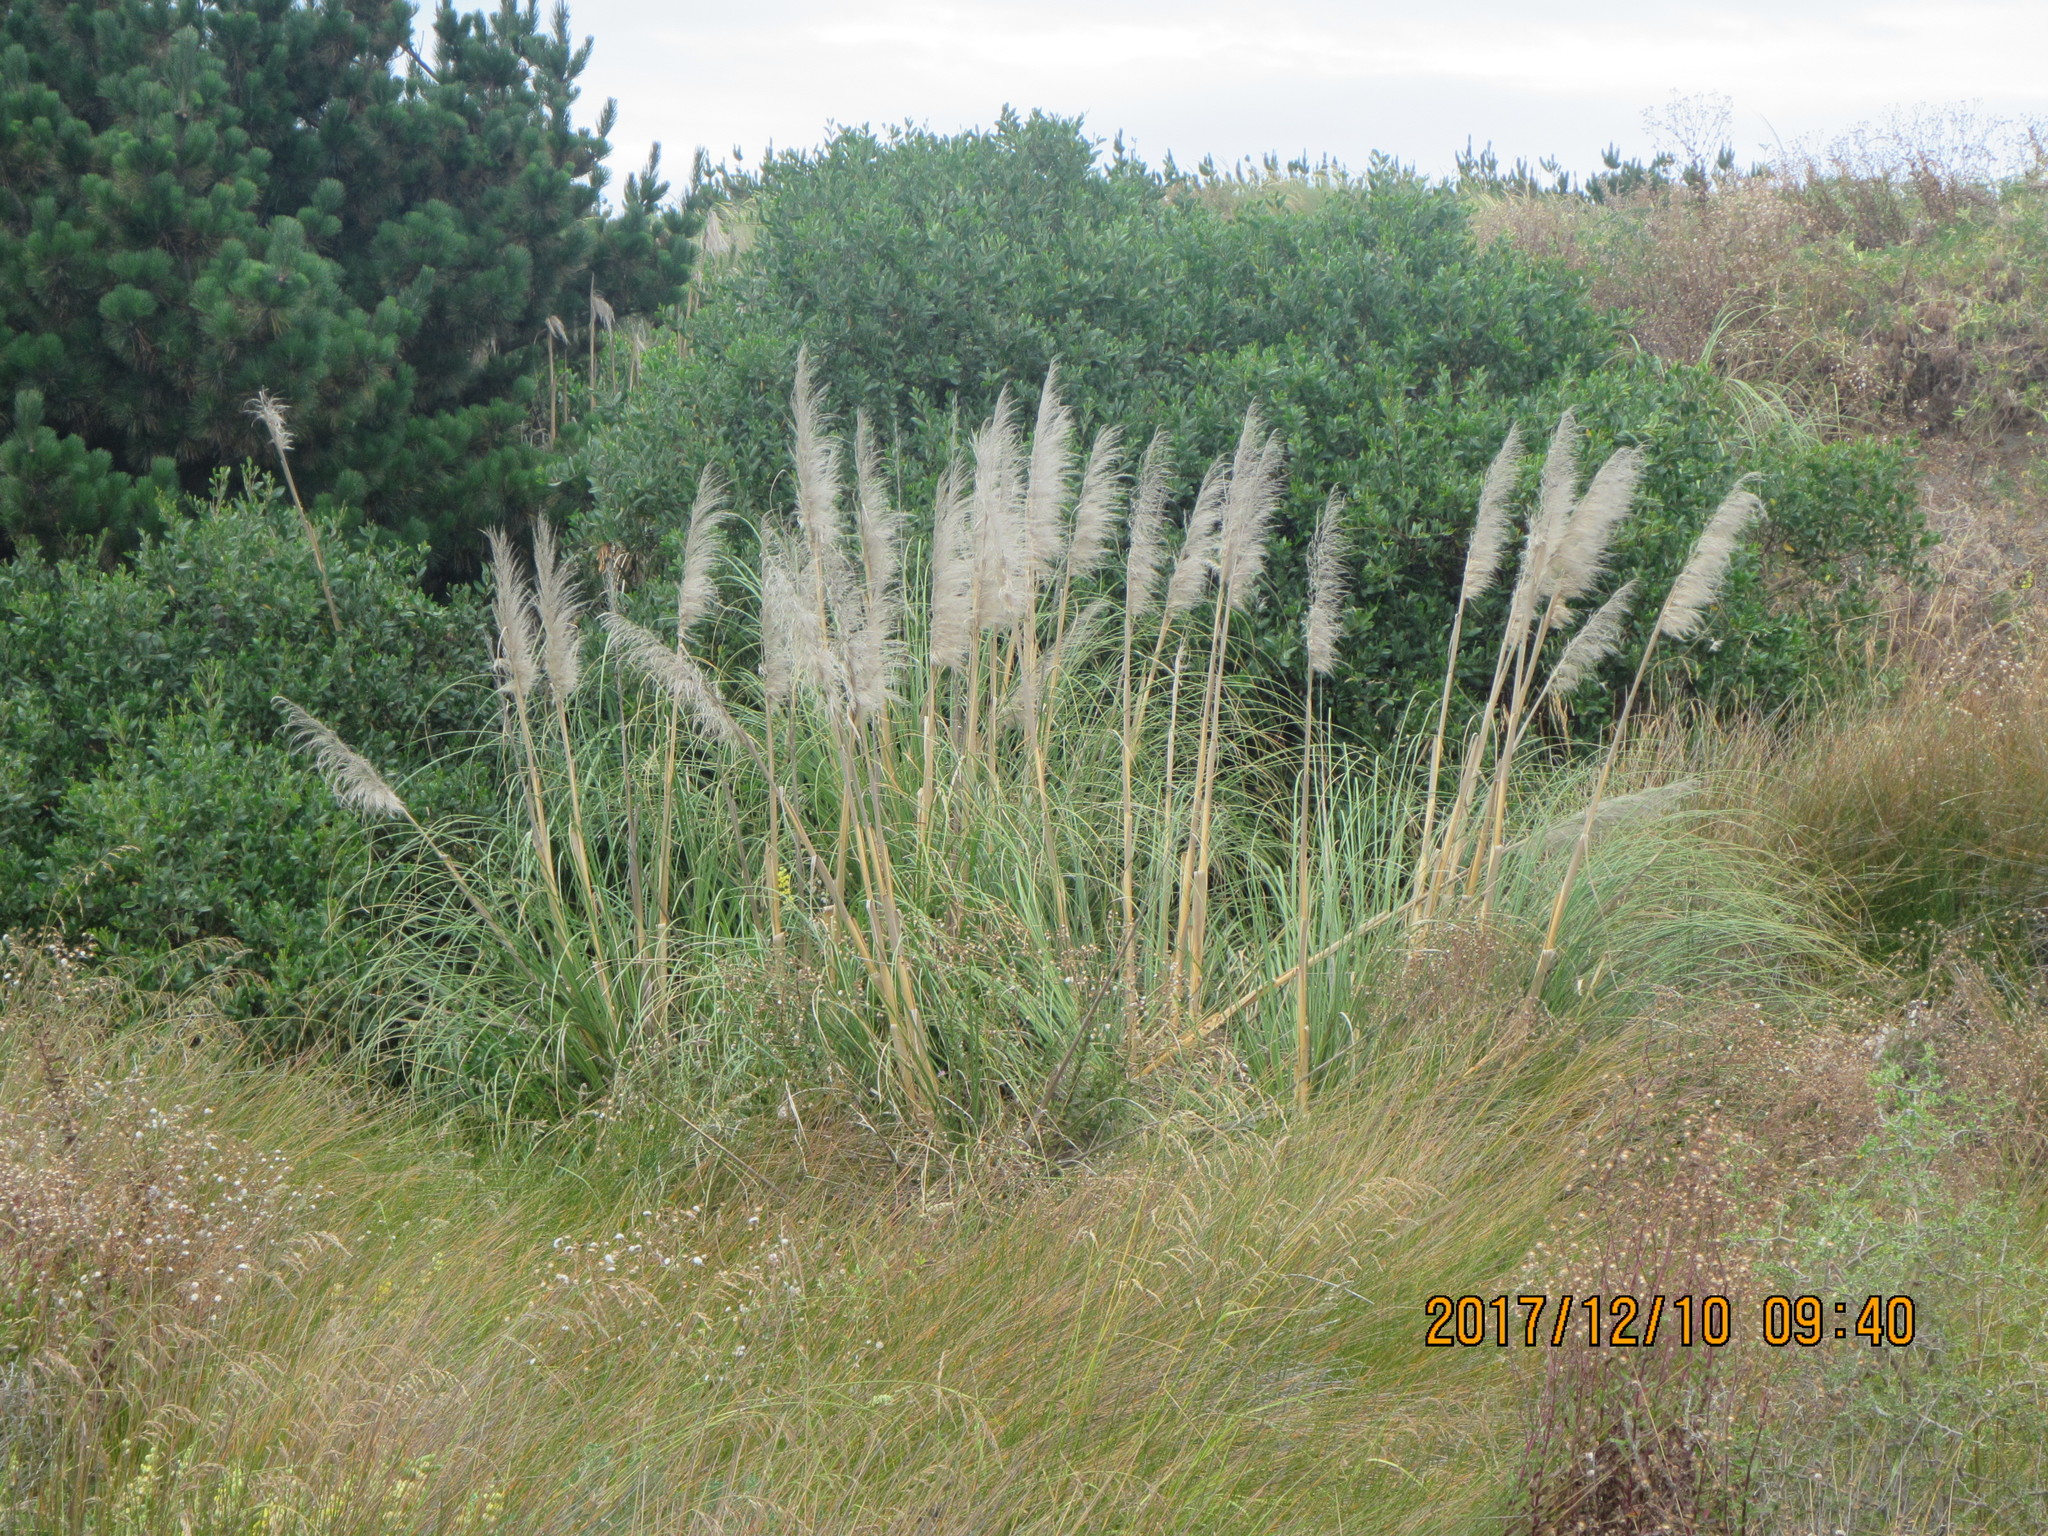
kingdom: Plantae
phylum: Tracheophyta
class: Liliopsida
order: Poales
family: Poaceae
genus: Cortaderia
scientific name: Cortaderia selloana
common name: Uruguayan pampas grass
